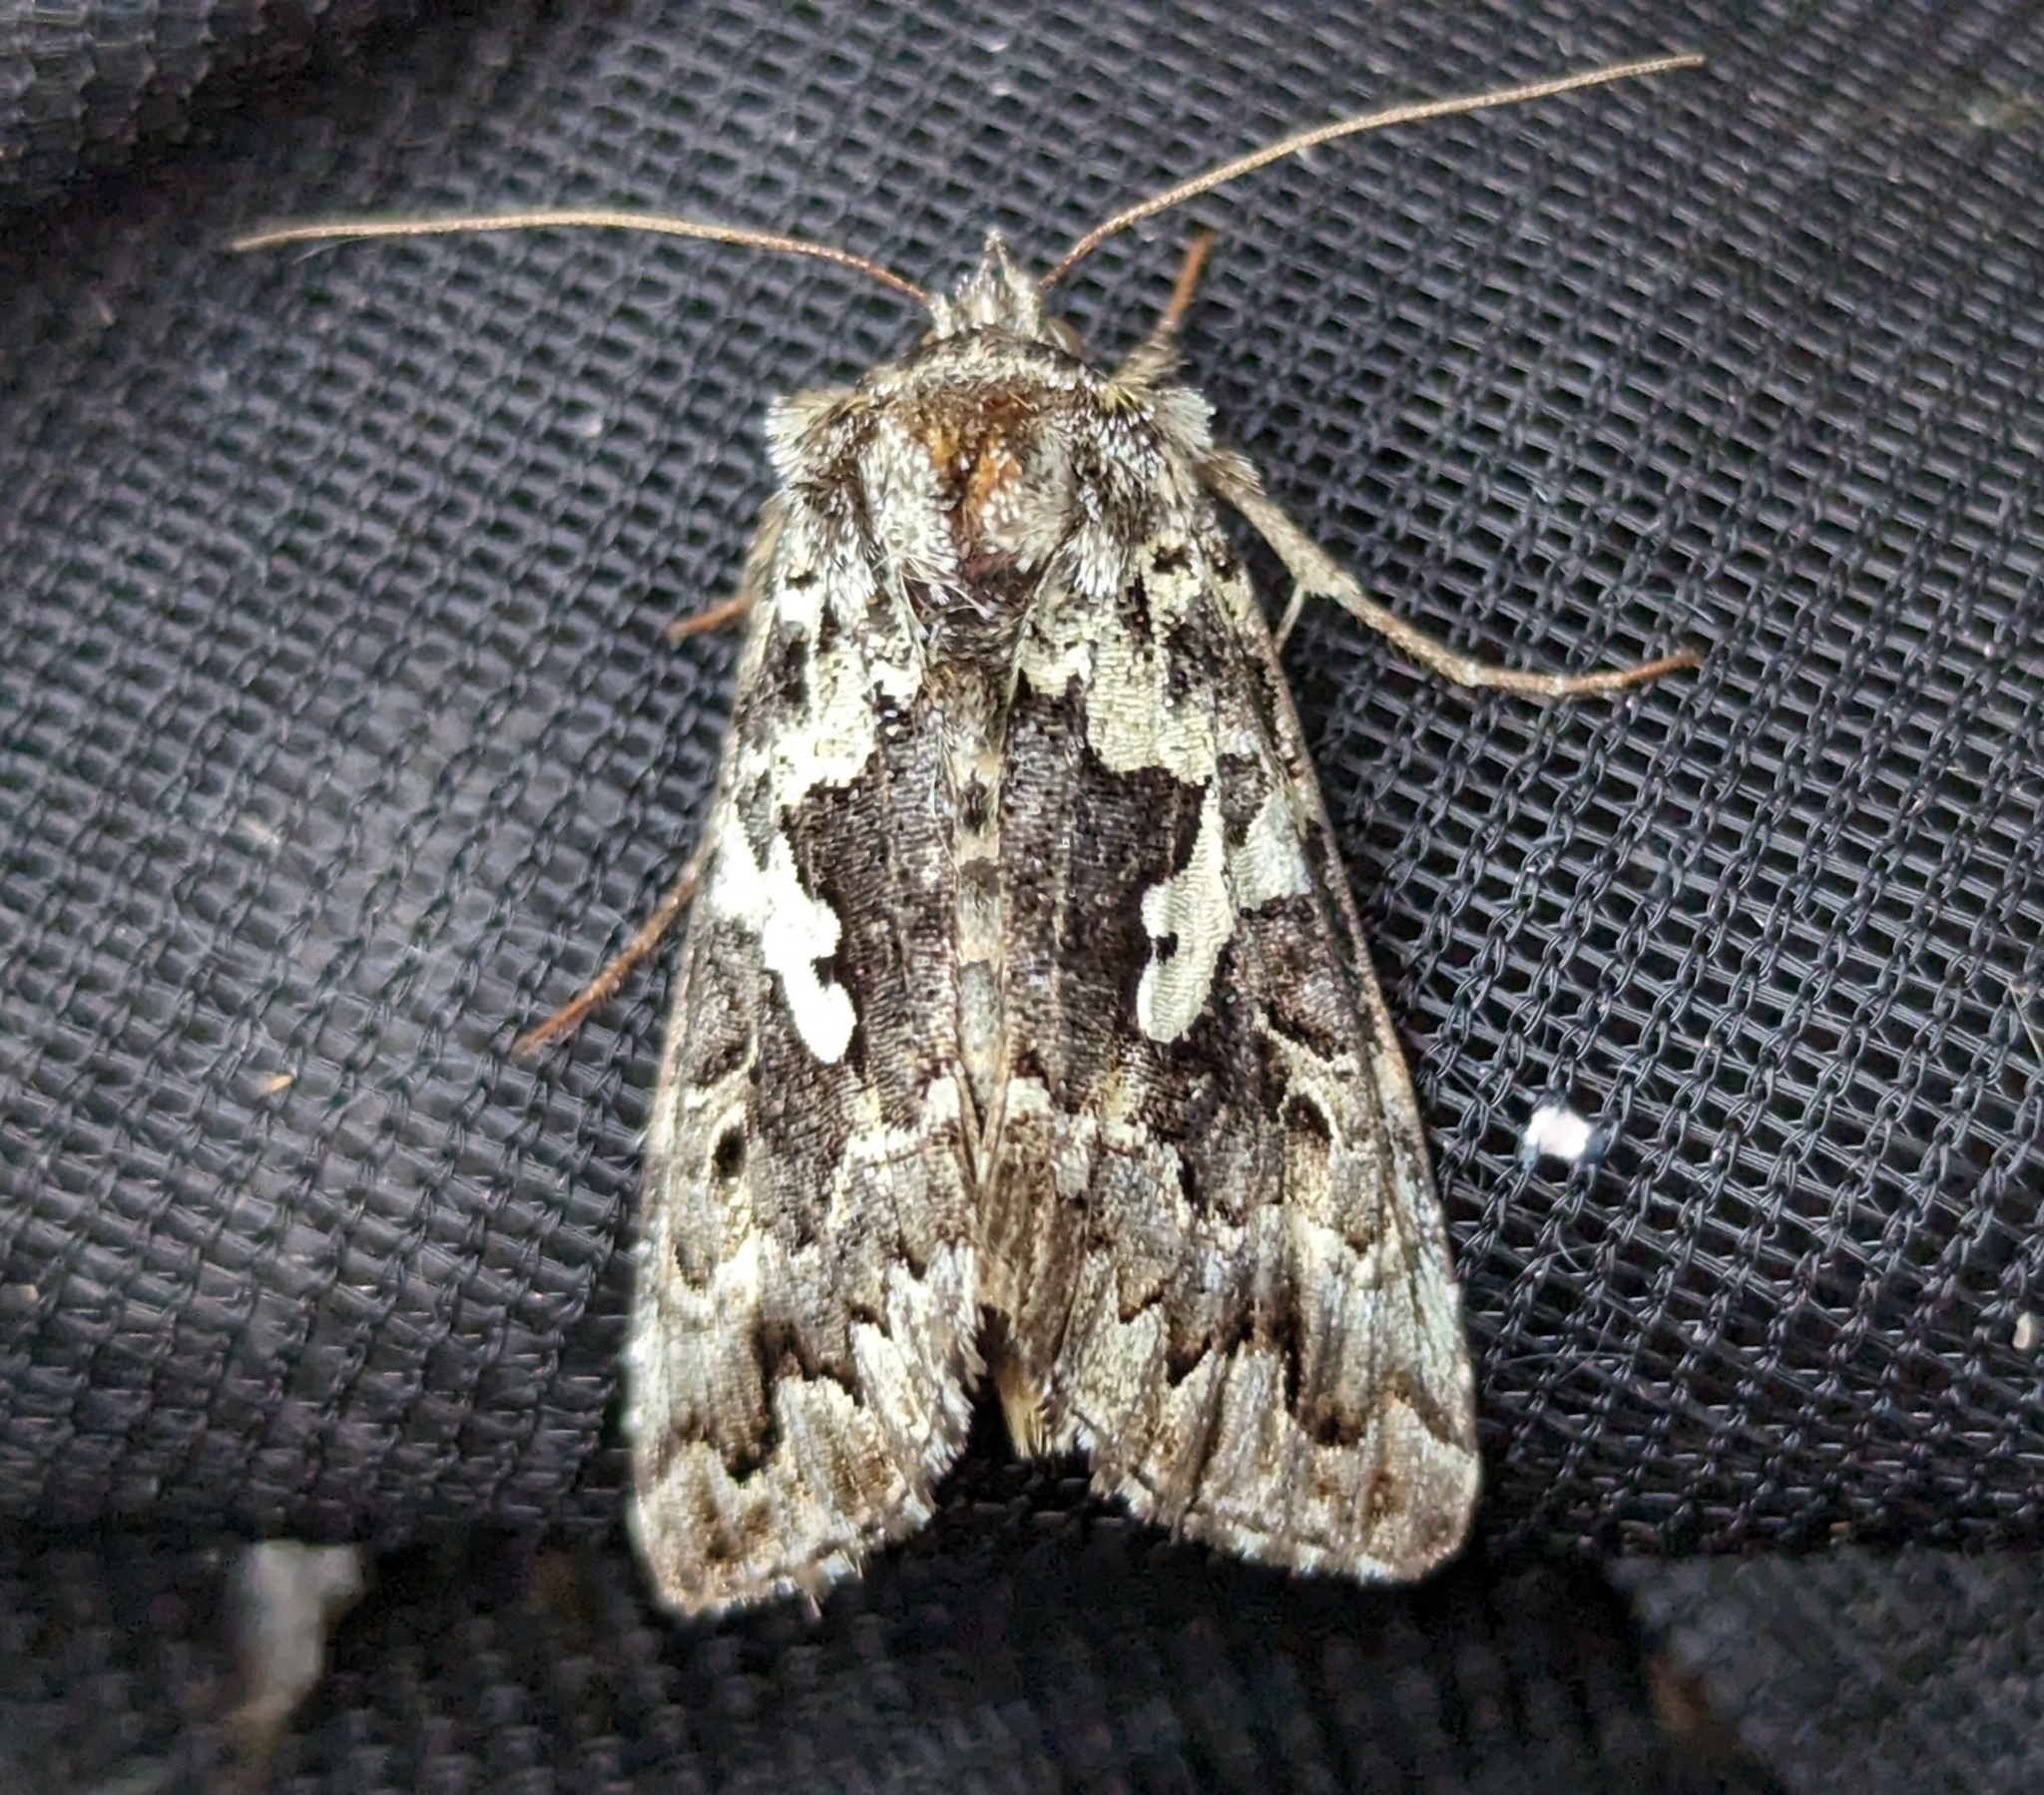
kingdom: Animalia
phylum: Arthropoda
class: Insecta
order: Lepidoptera
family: Noctuidae
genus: Syngrapha
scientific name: Syngrapha rectangula
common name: Angulated cutworm
